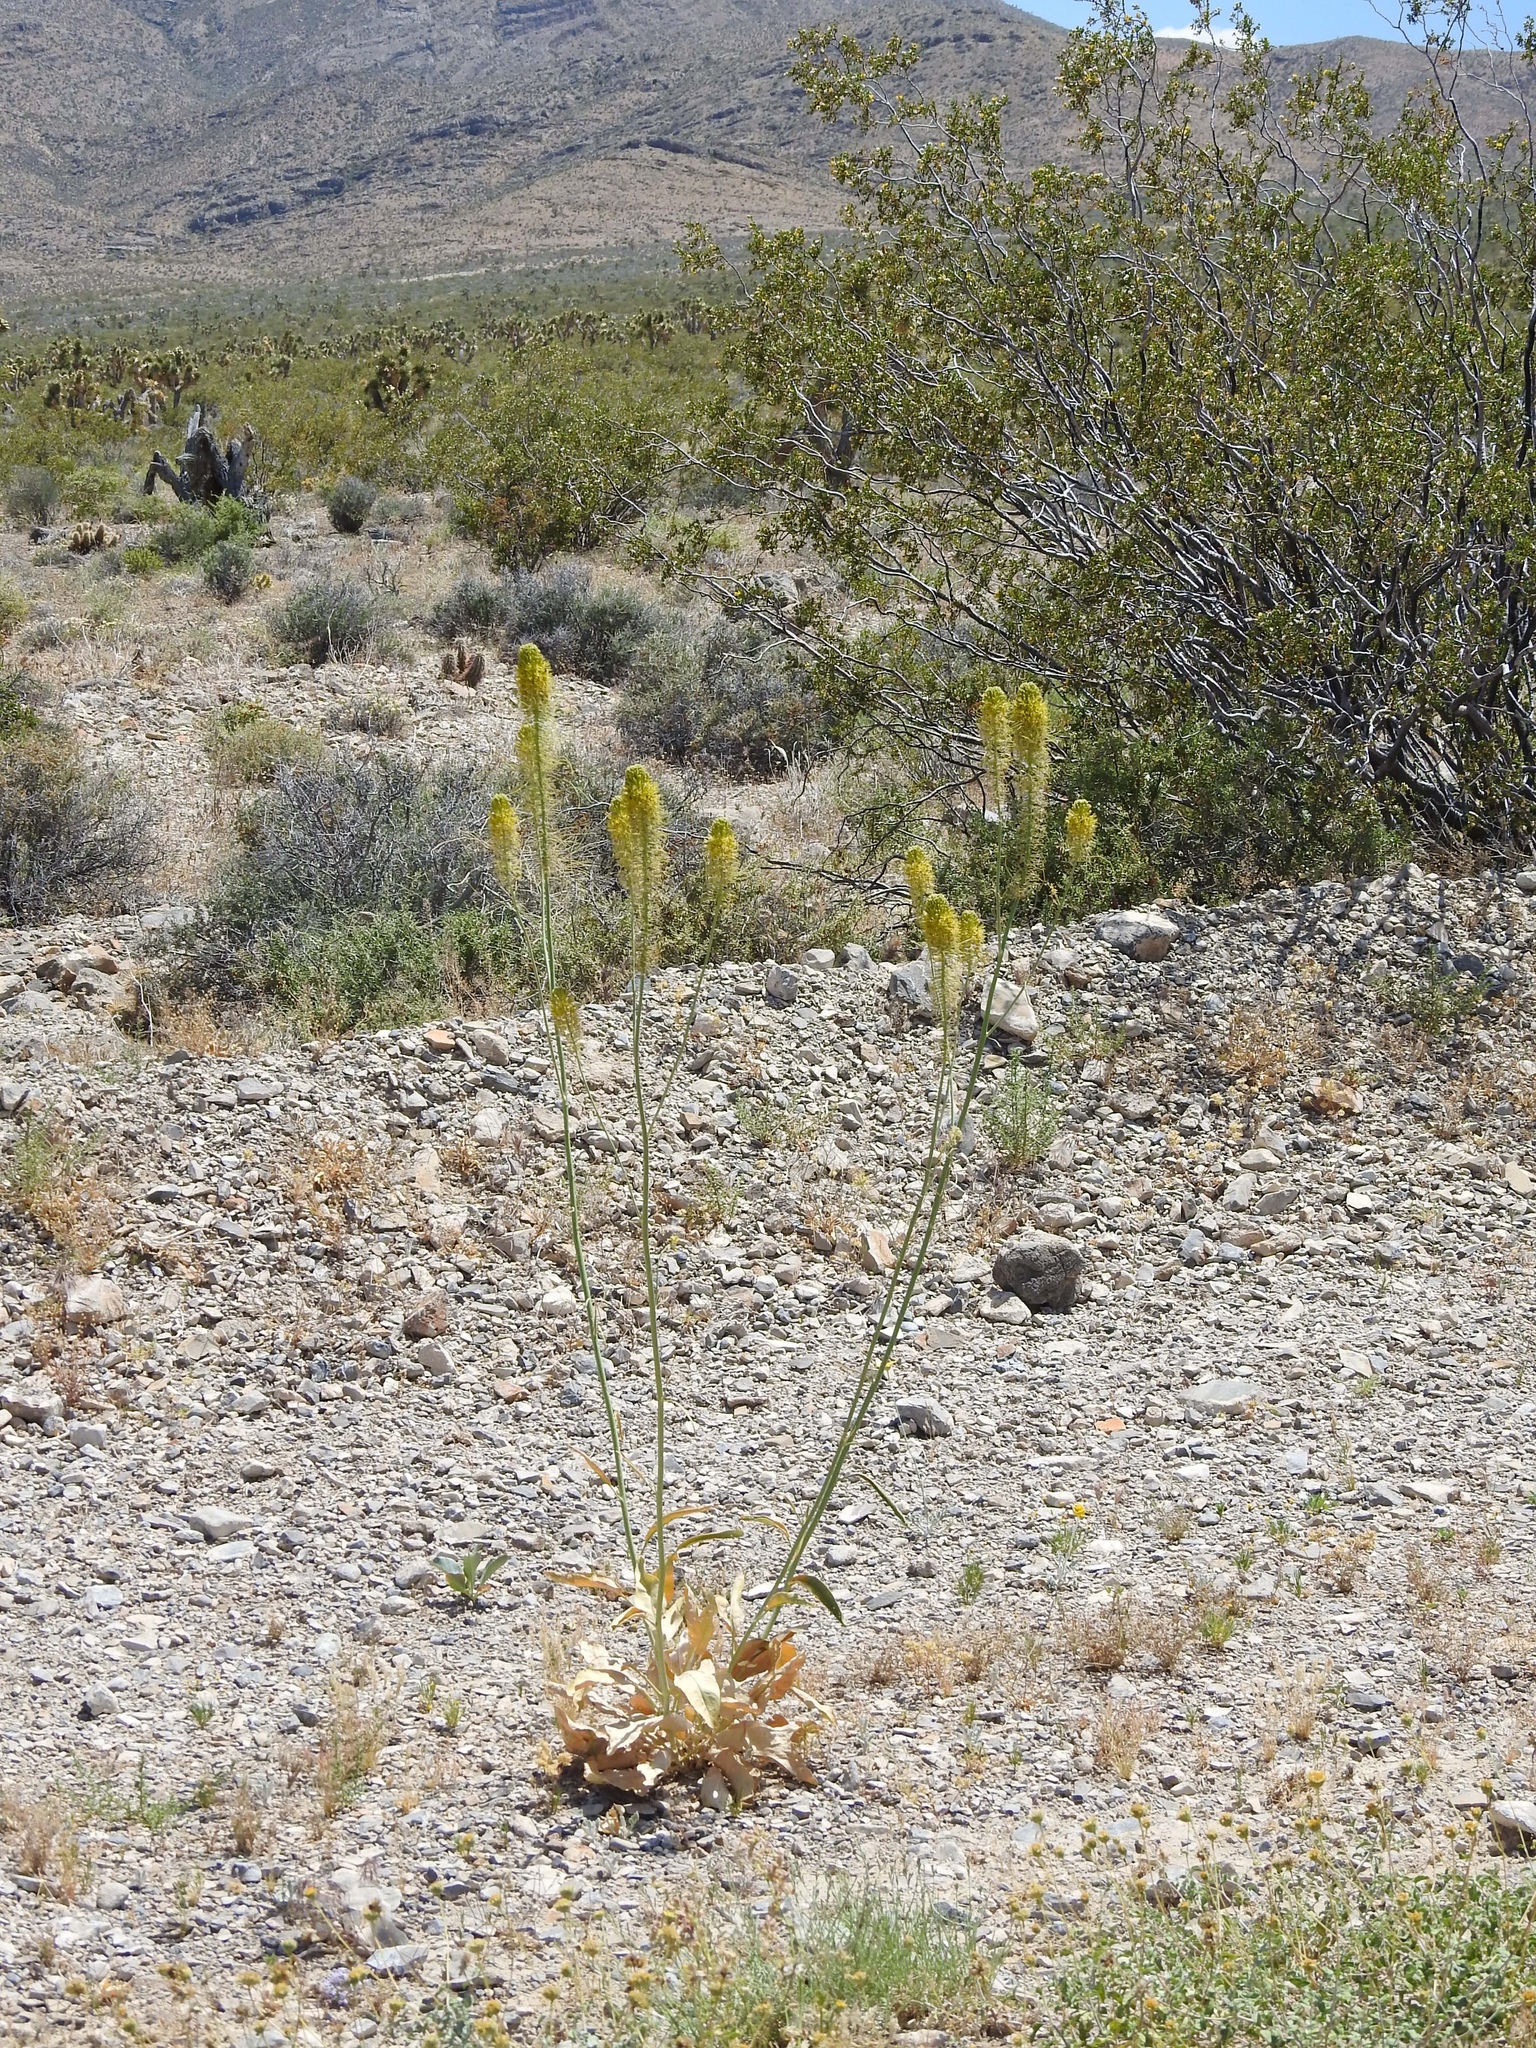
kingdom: Plantae
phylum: Tracheophyta
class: Magnoliopsida
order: Brassicales
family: Brassicaceae
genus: Stanleya
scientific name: Stanleya elata
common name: Panamint prince's plume
